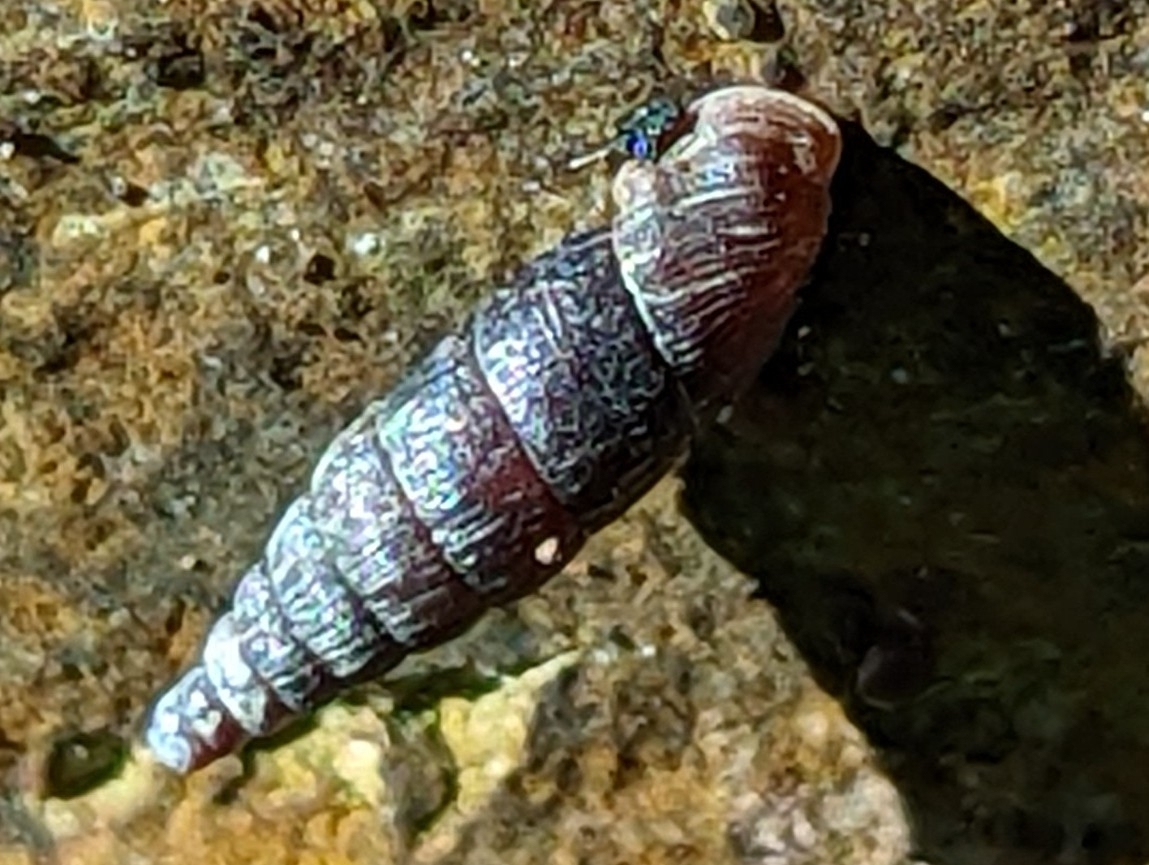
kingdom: Animalia
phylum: Mollusca
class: Gastropoda
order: Stylommatophora
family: Clausiliidae
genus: Clausilia
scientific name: Clausilia bidentata
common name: Two-toothed door snail
